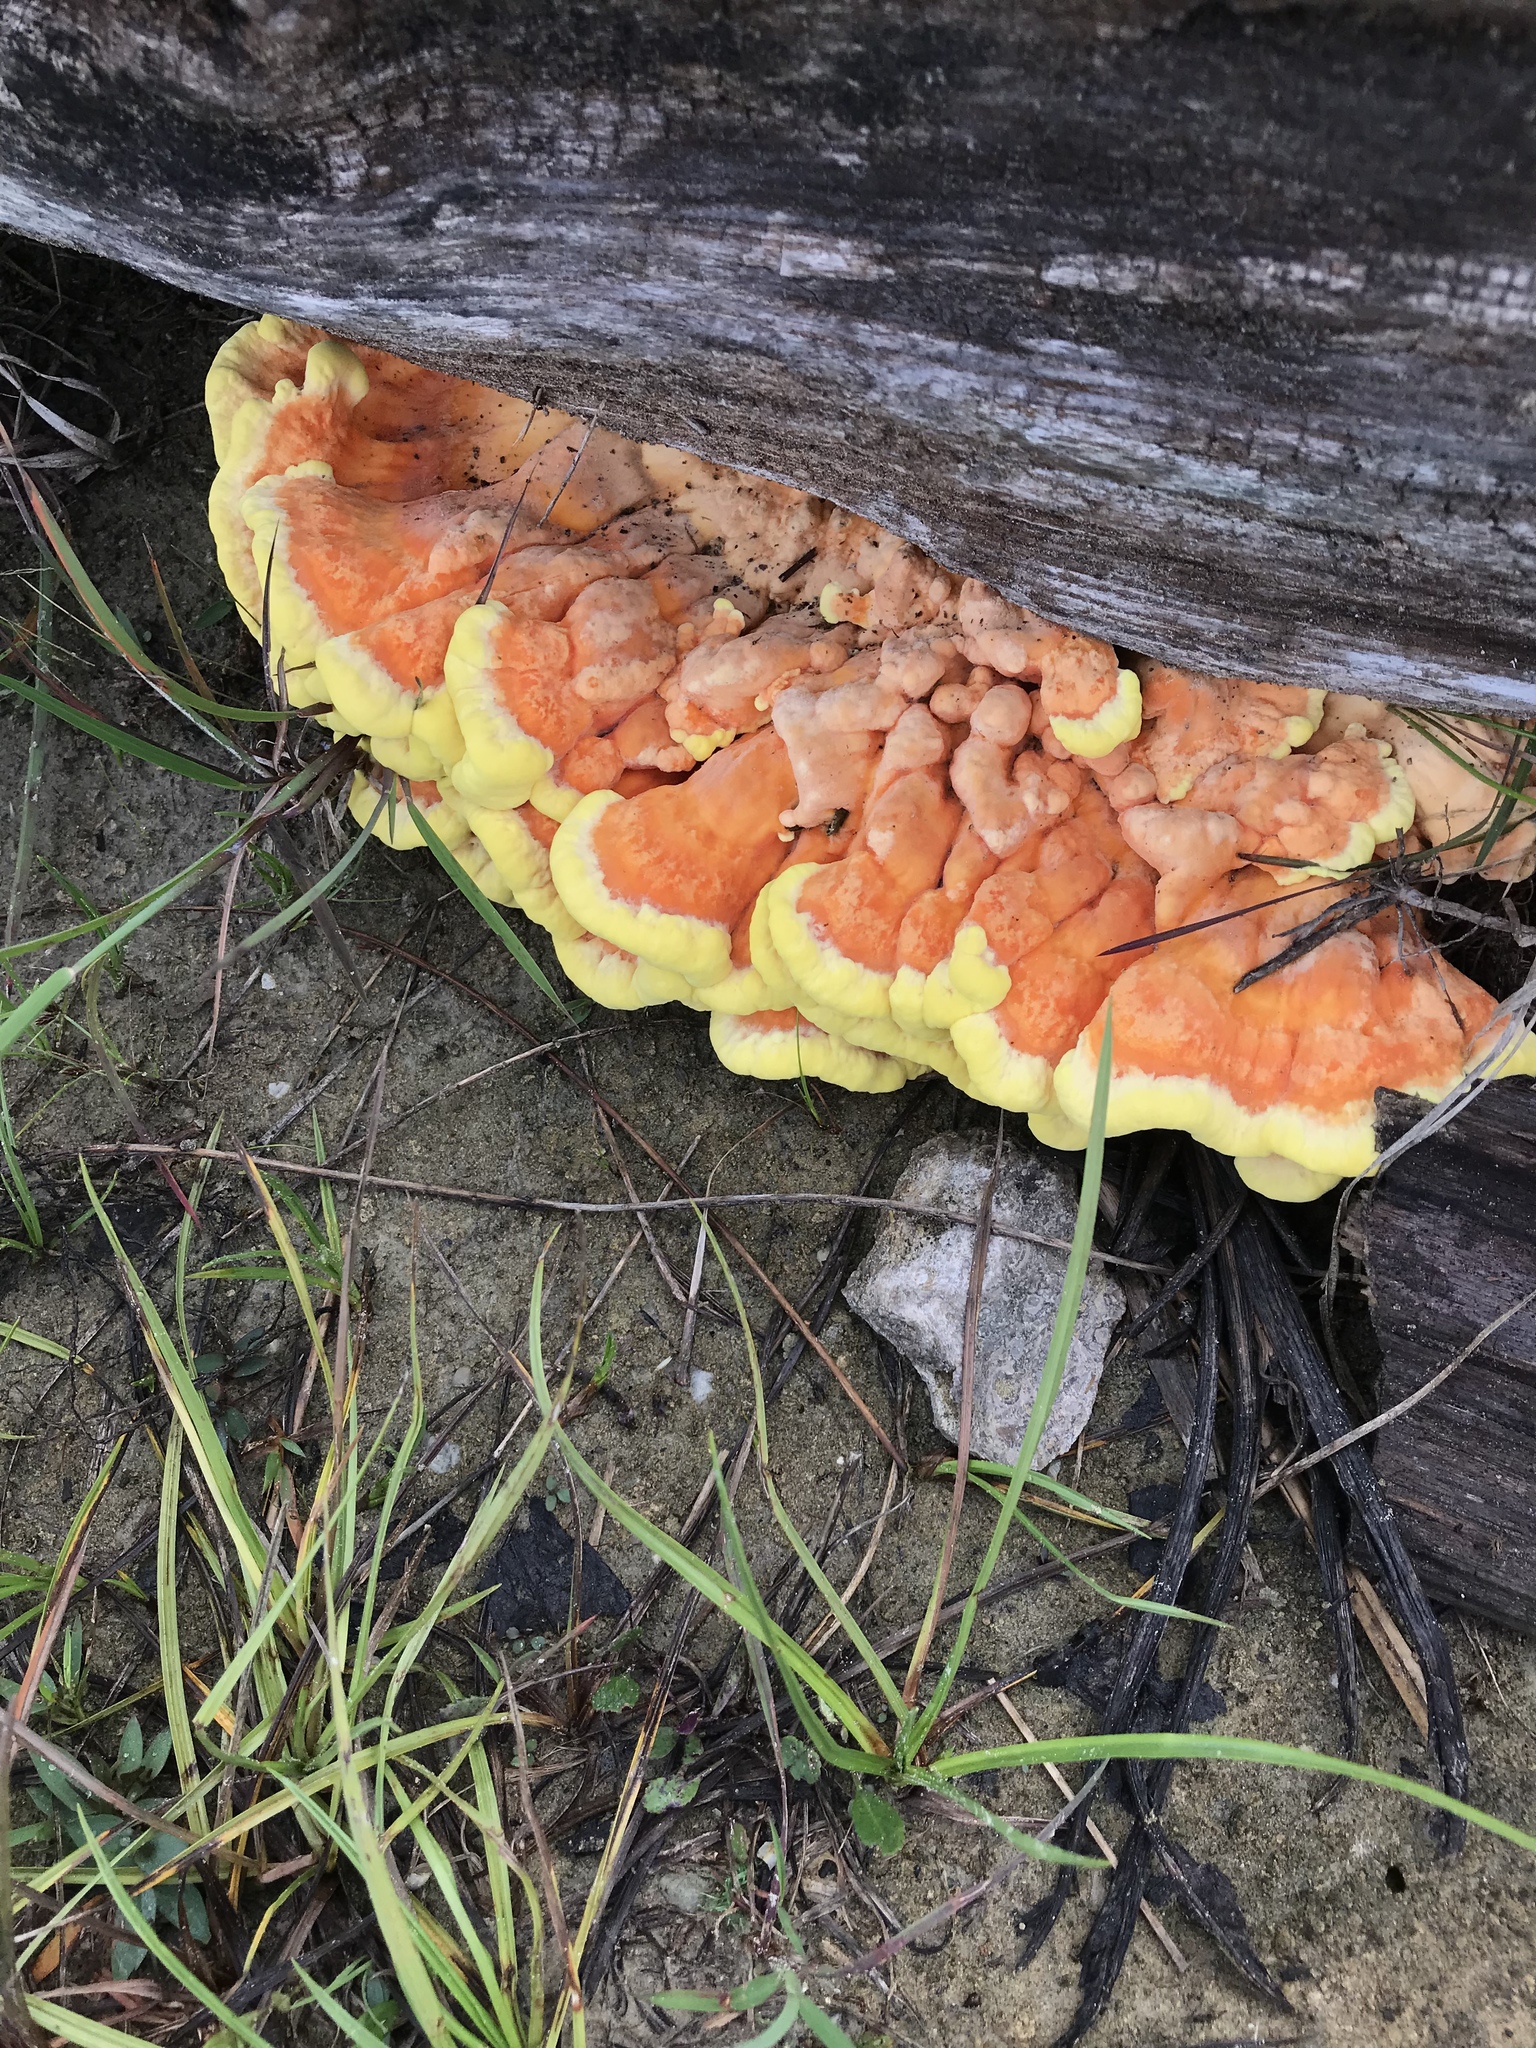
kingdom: Fungi
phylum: Basidiomycota
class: Agaricomycetes
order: Polyporales
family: Laetiporaceae
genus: Laetiporus
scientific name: Laetiporus sulphureus
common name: Chicken of the woods
